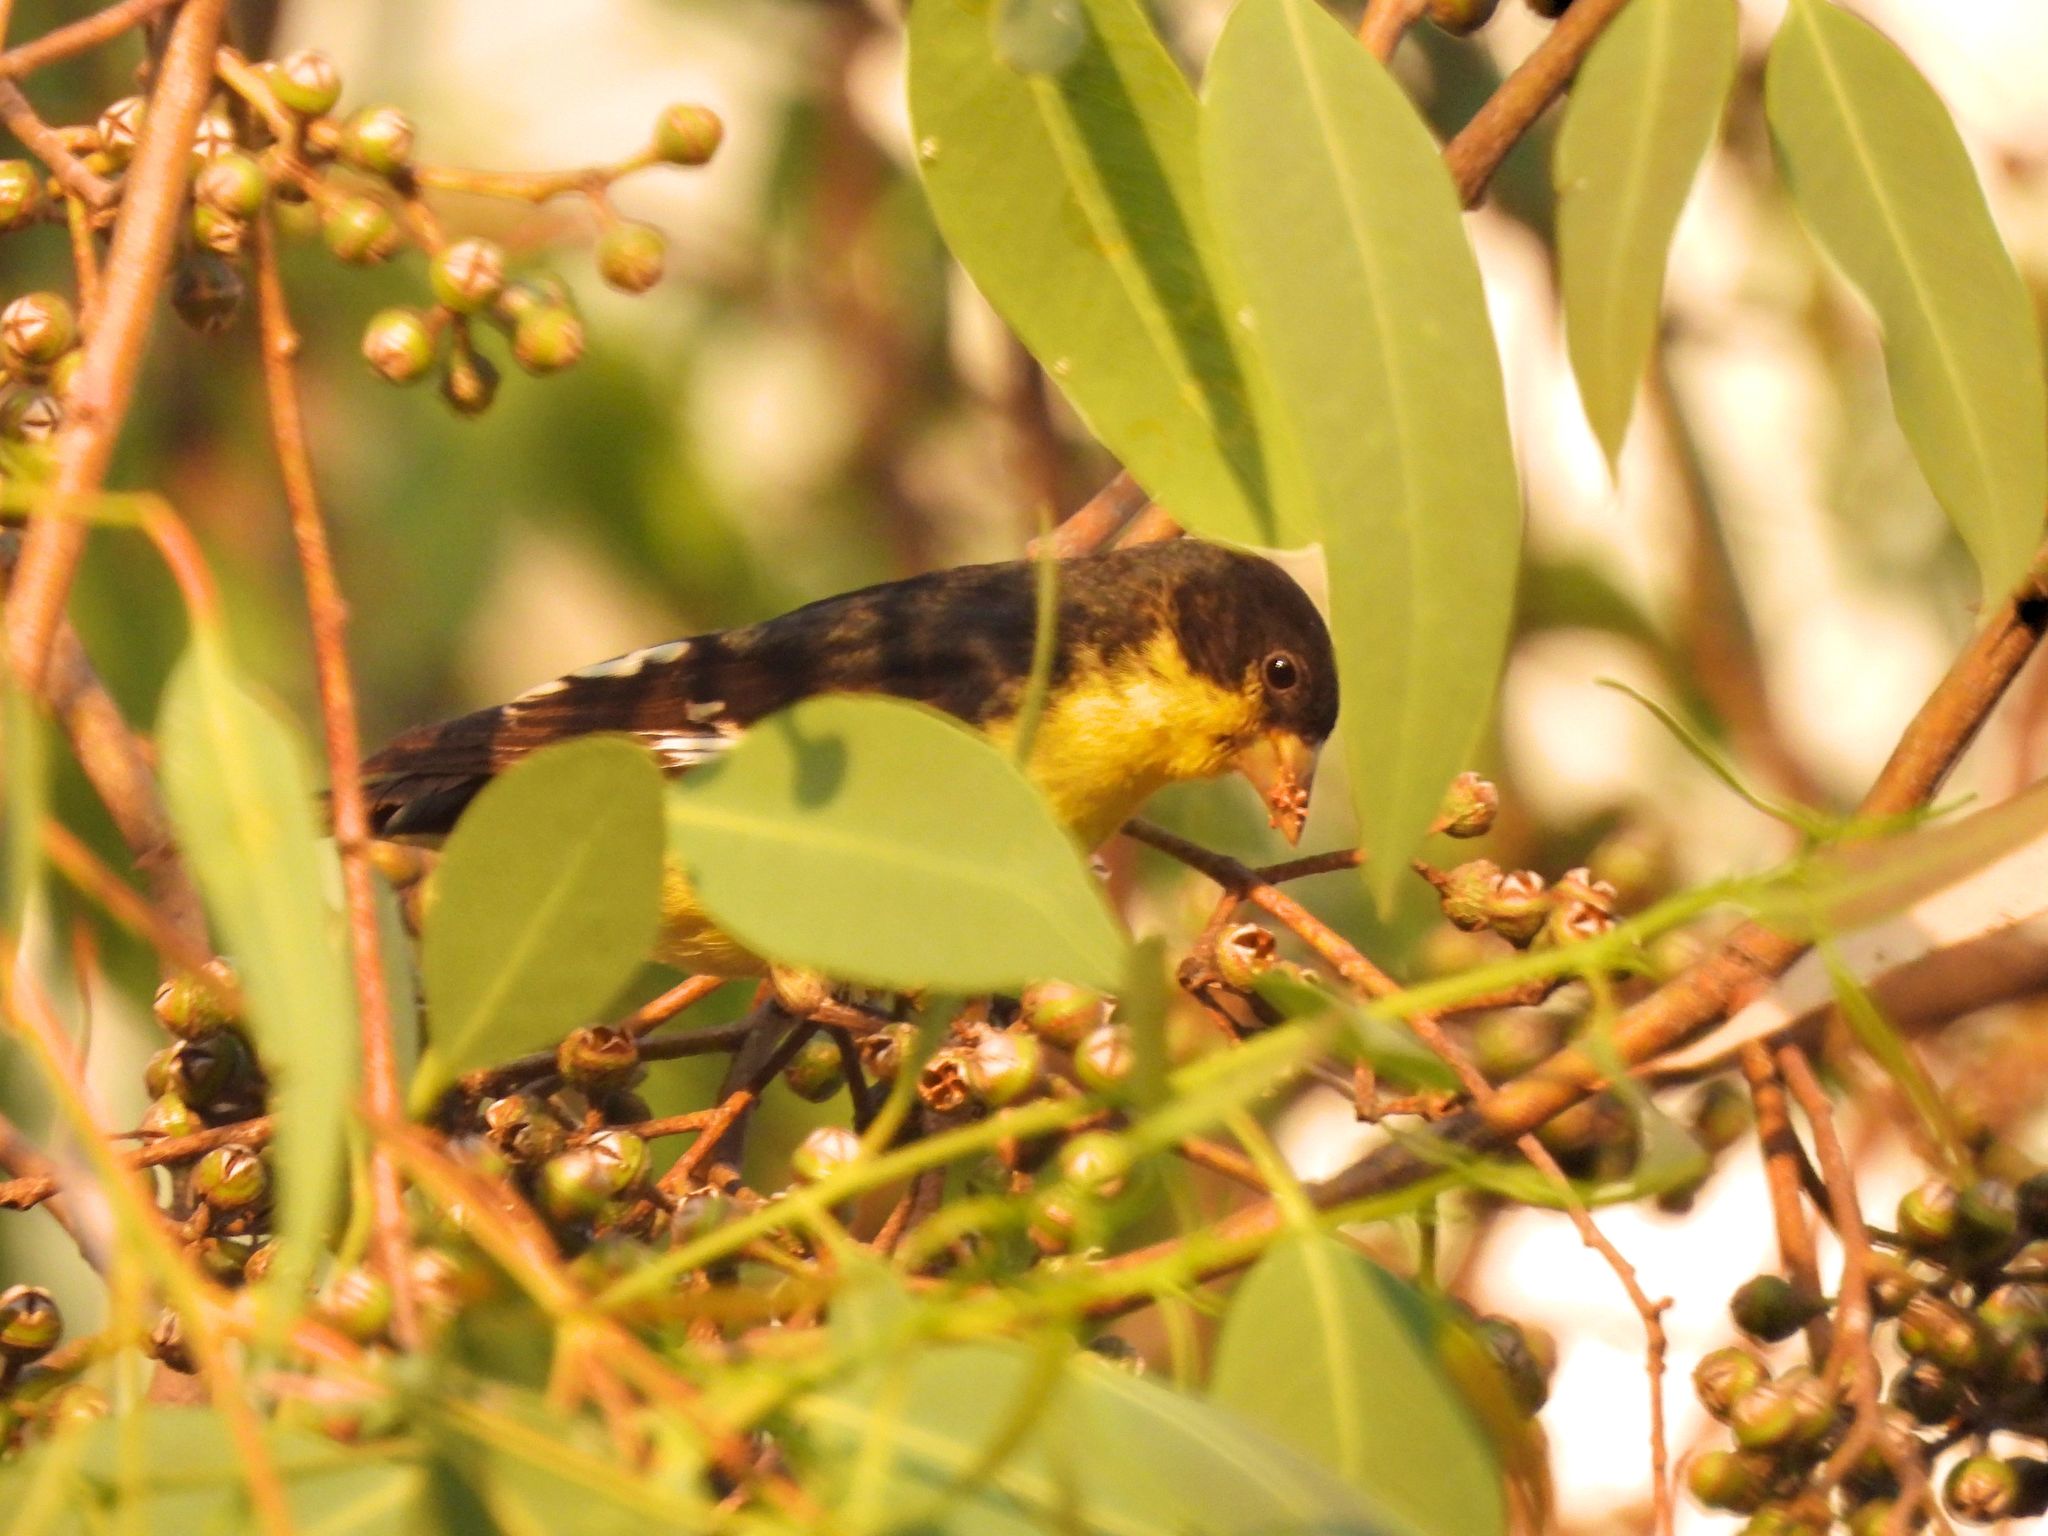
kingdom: Animalia
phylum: Chordata
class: Aves
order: Passeriformes
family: Fringillidae
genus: Spinus
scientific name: Spinus psaltria
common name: Lesser goldfinch
